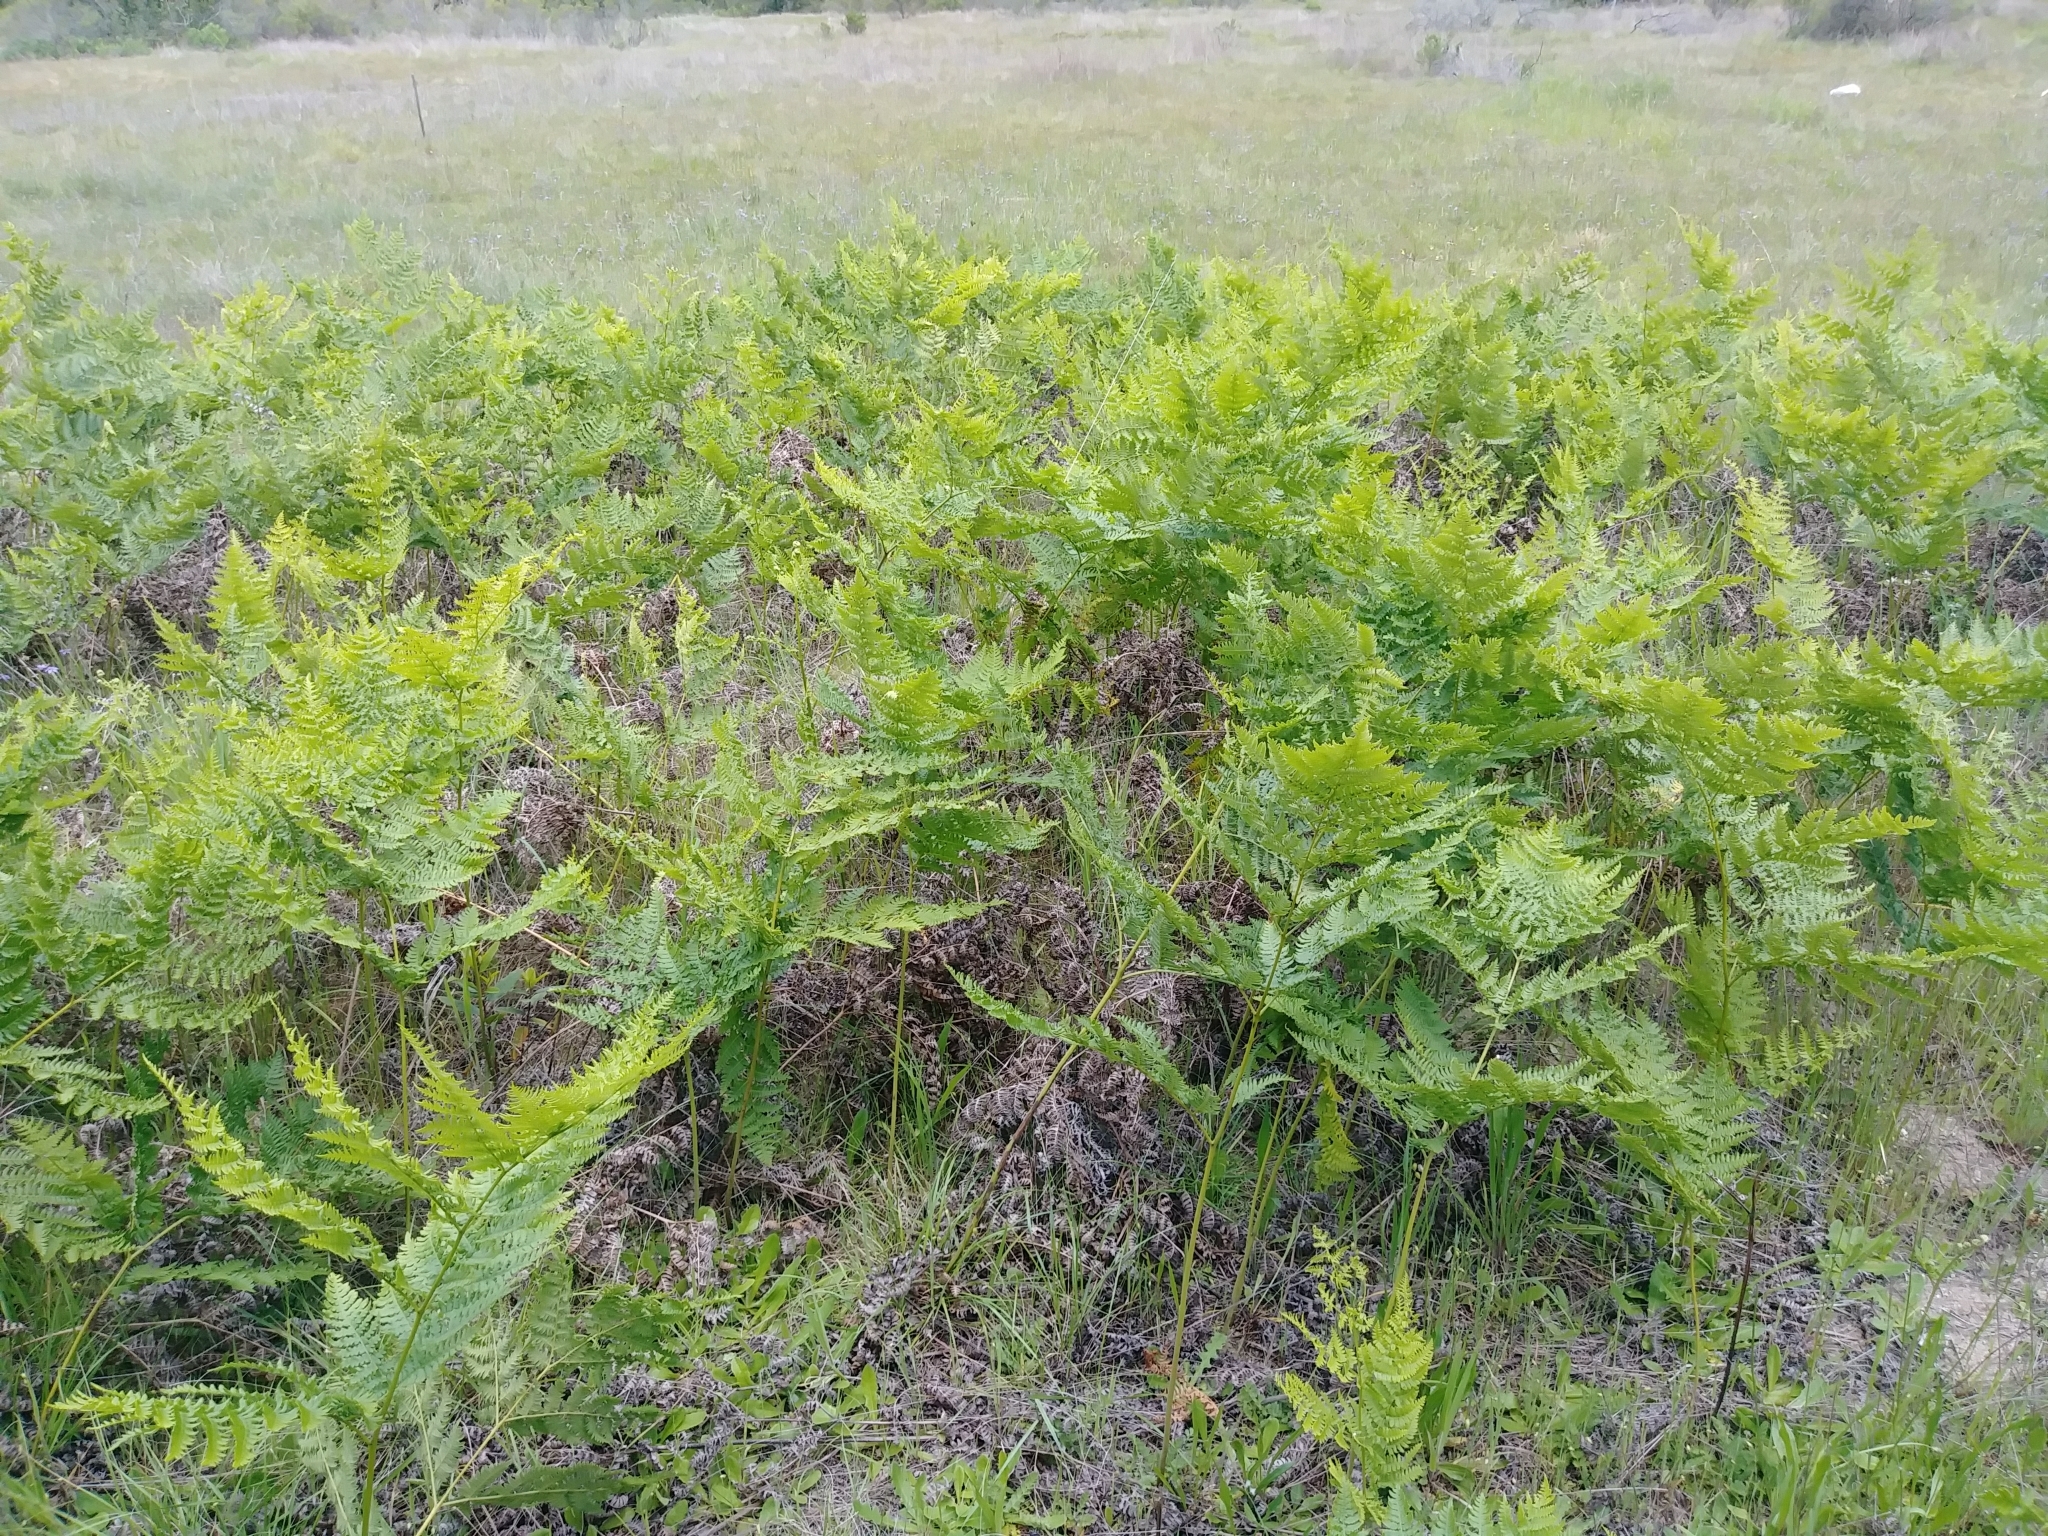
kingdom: Plantae
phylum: Tracheophyta
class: Polypodiopsida
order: Polypodiales
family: Dennstaedtiaceae
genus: Pteridium
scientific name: Pteridium aquilinum
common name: Bracken
